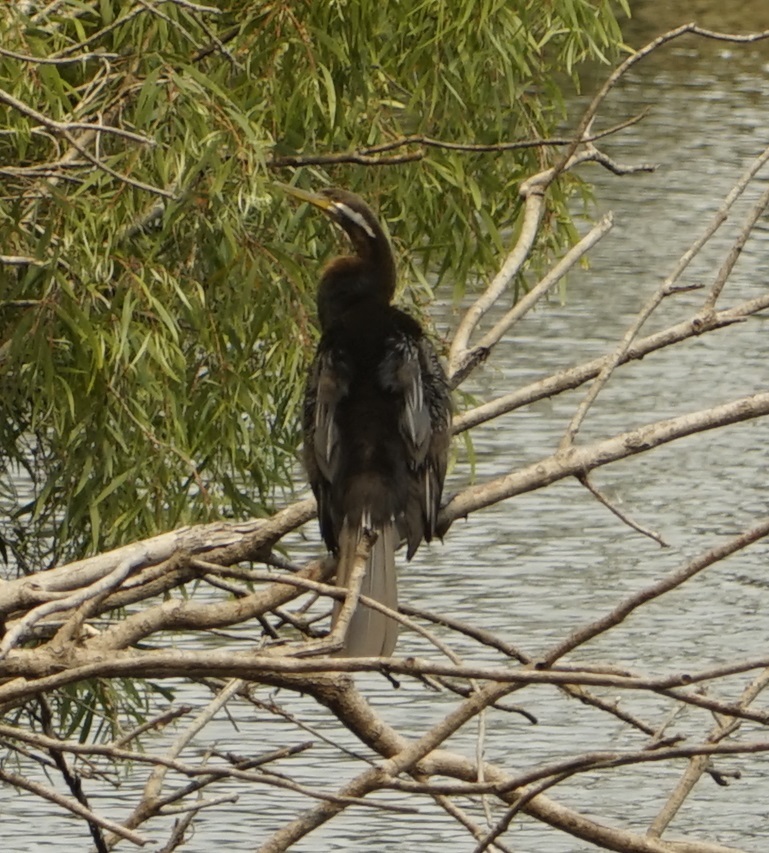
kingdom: Animalia
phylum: Chordata
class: Aves
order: Suliformes
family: Anhingidae
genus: Anhinga
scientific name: Anhinga novaehollandiae
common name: Australasian darter
